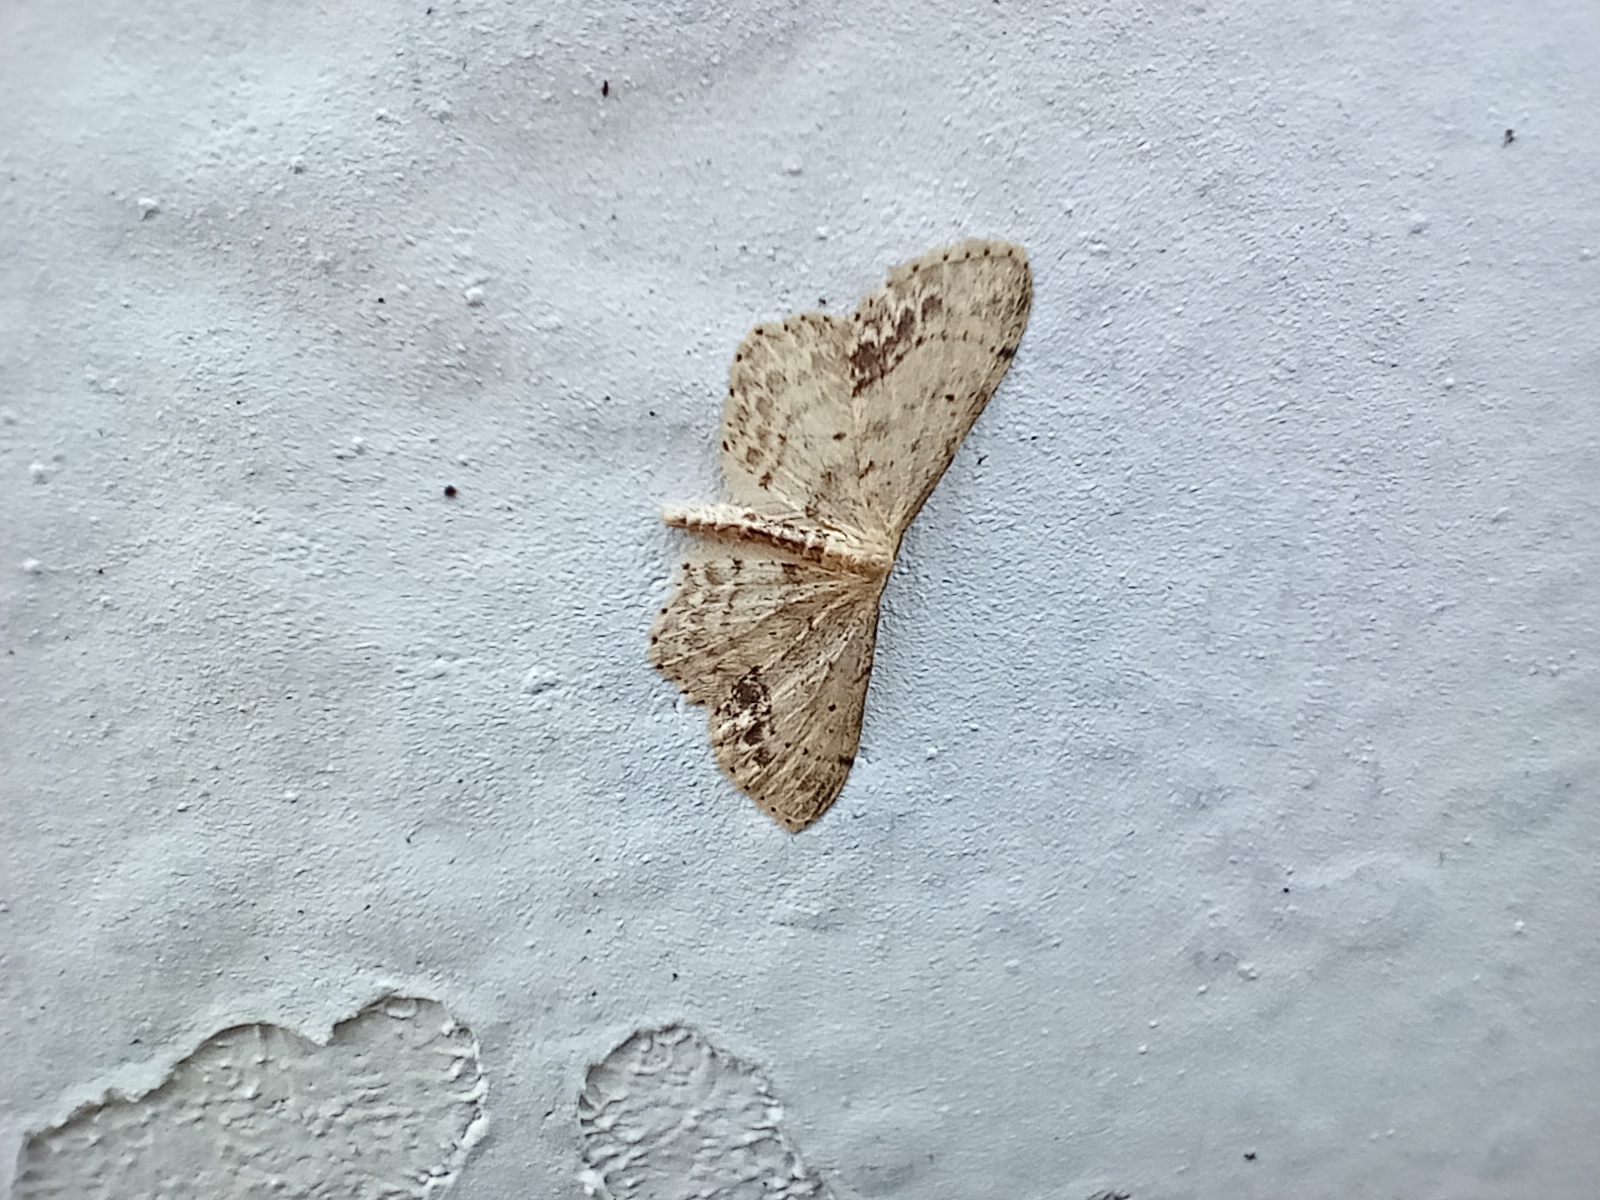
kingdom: Animalia
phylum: Arthropoda
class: Insecta
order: Lepidoptera
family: Geometridae
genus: Idaea
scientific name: Idaea dimidiata
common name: Single-dotted wave
